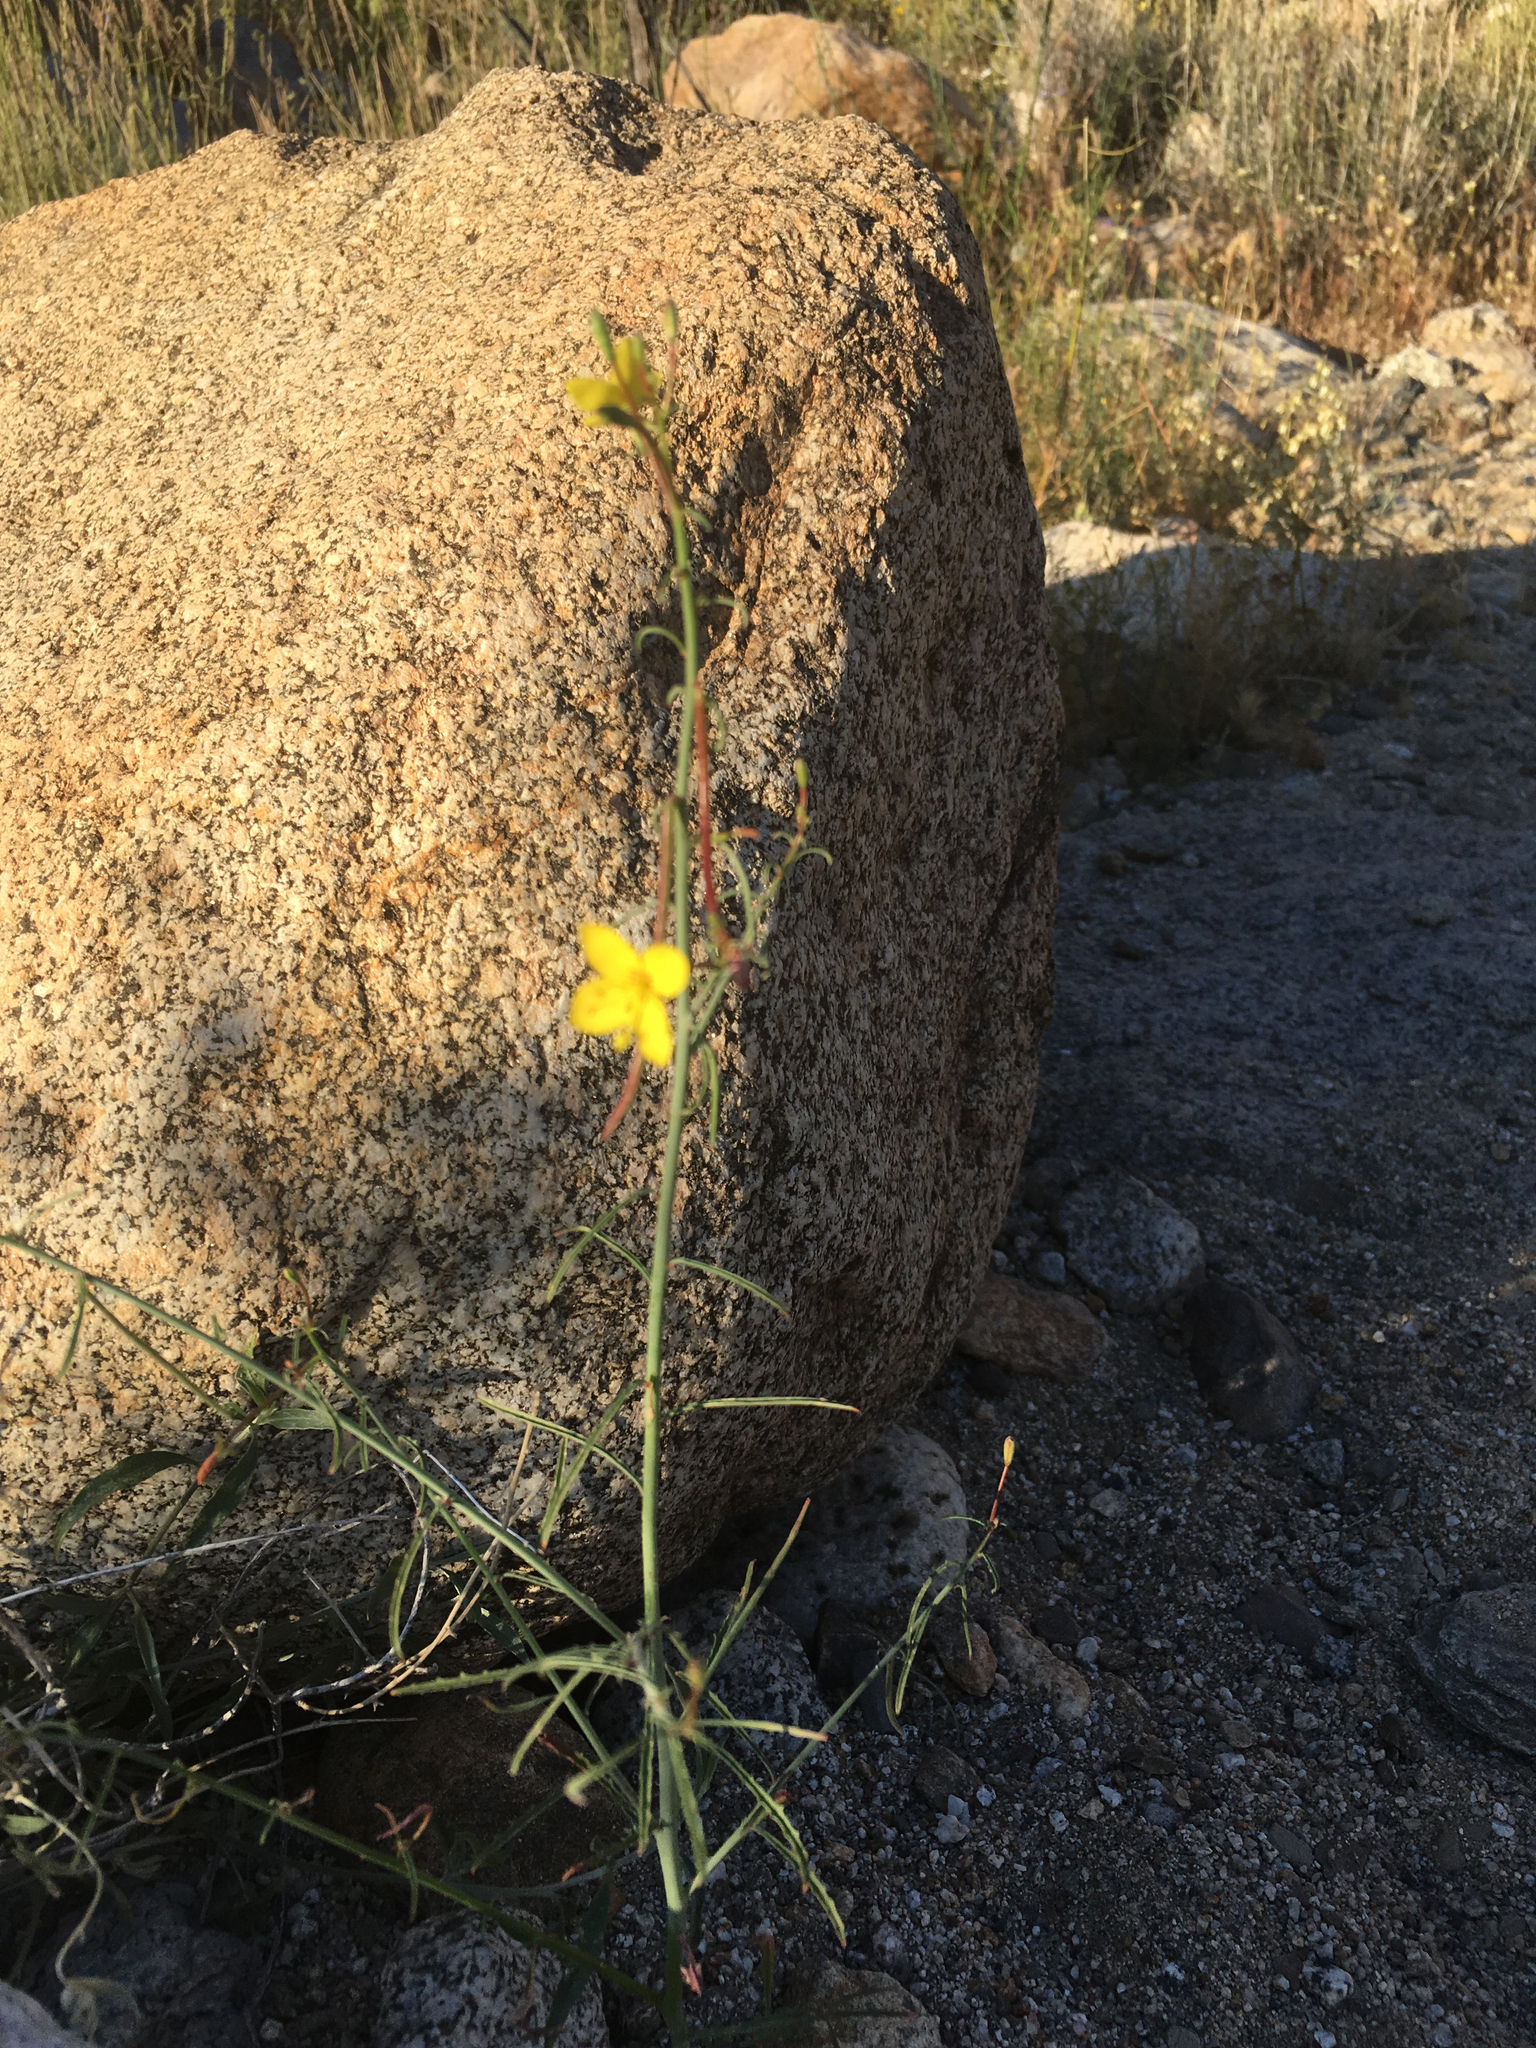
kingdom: Plantae
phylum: Tracheophyta
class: Magnoliopsida
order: Myrtales
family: Onagraceae
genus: Eulobus
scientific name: Eulobus californicus
